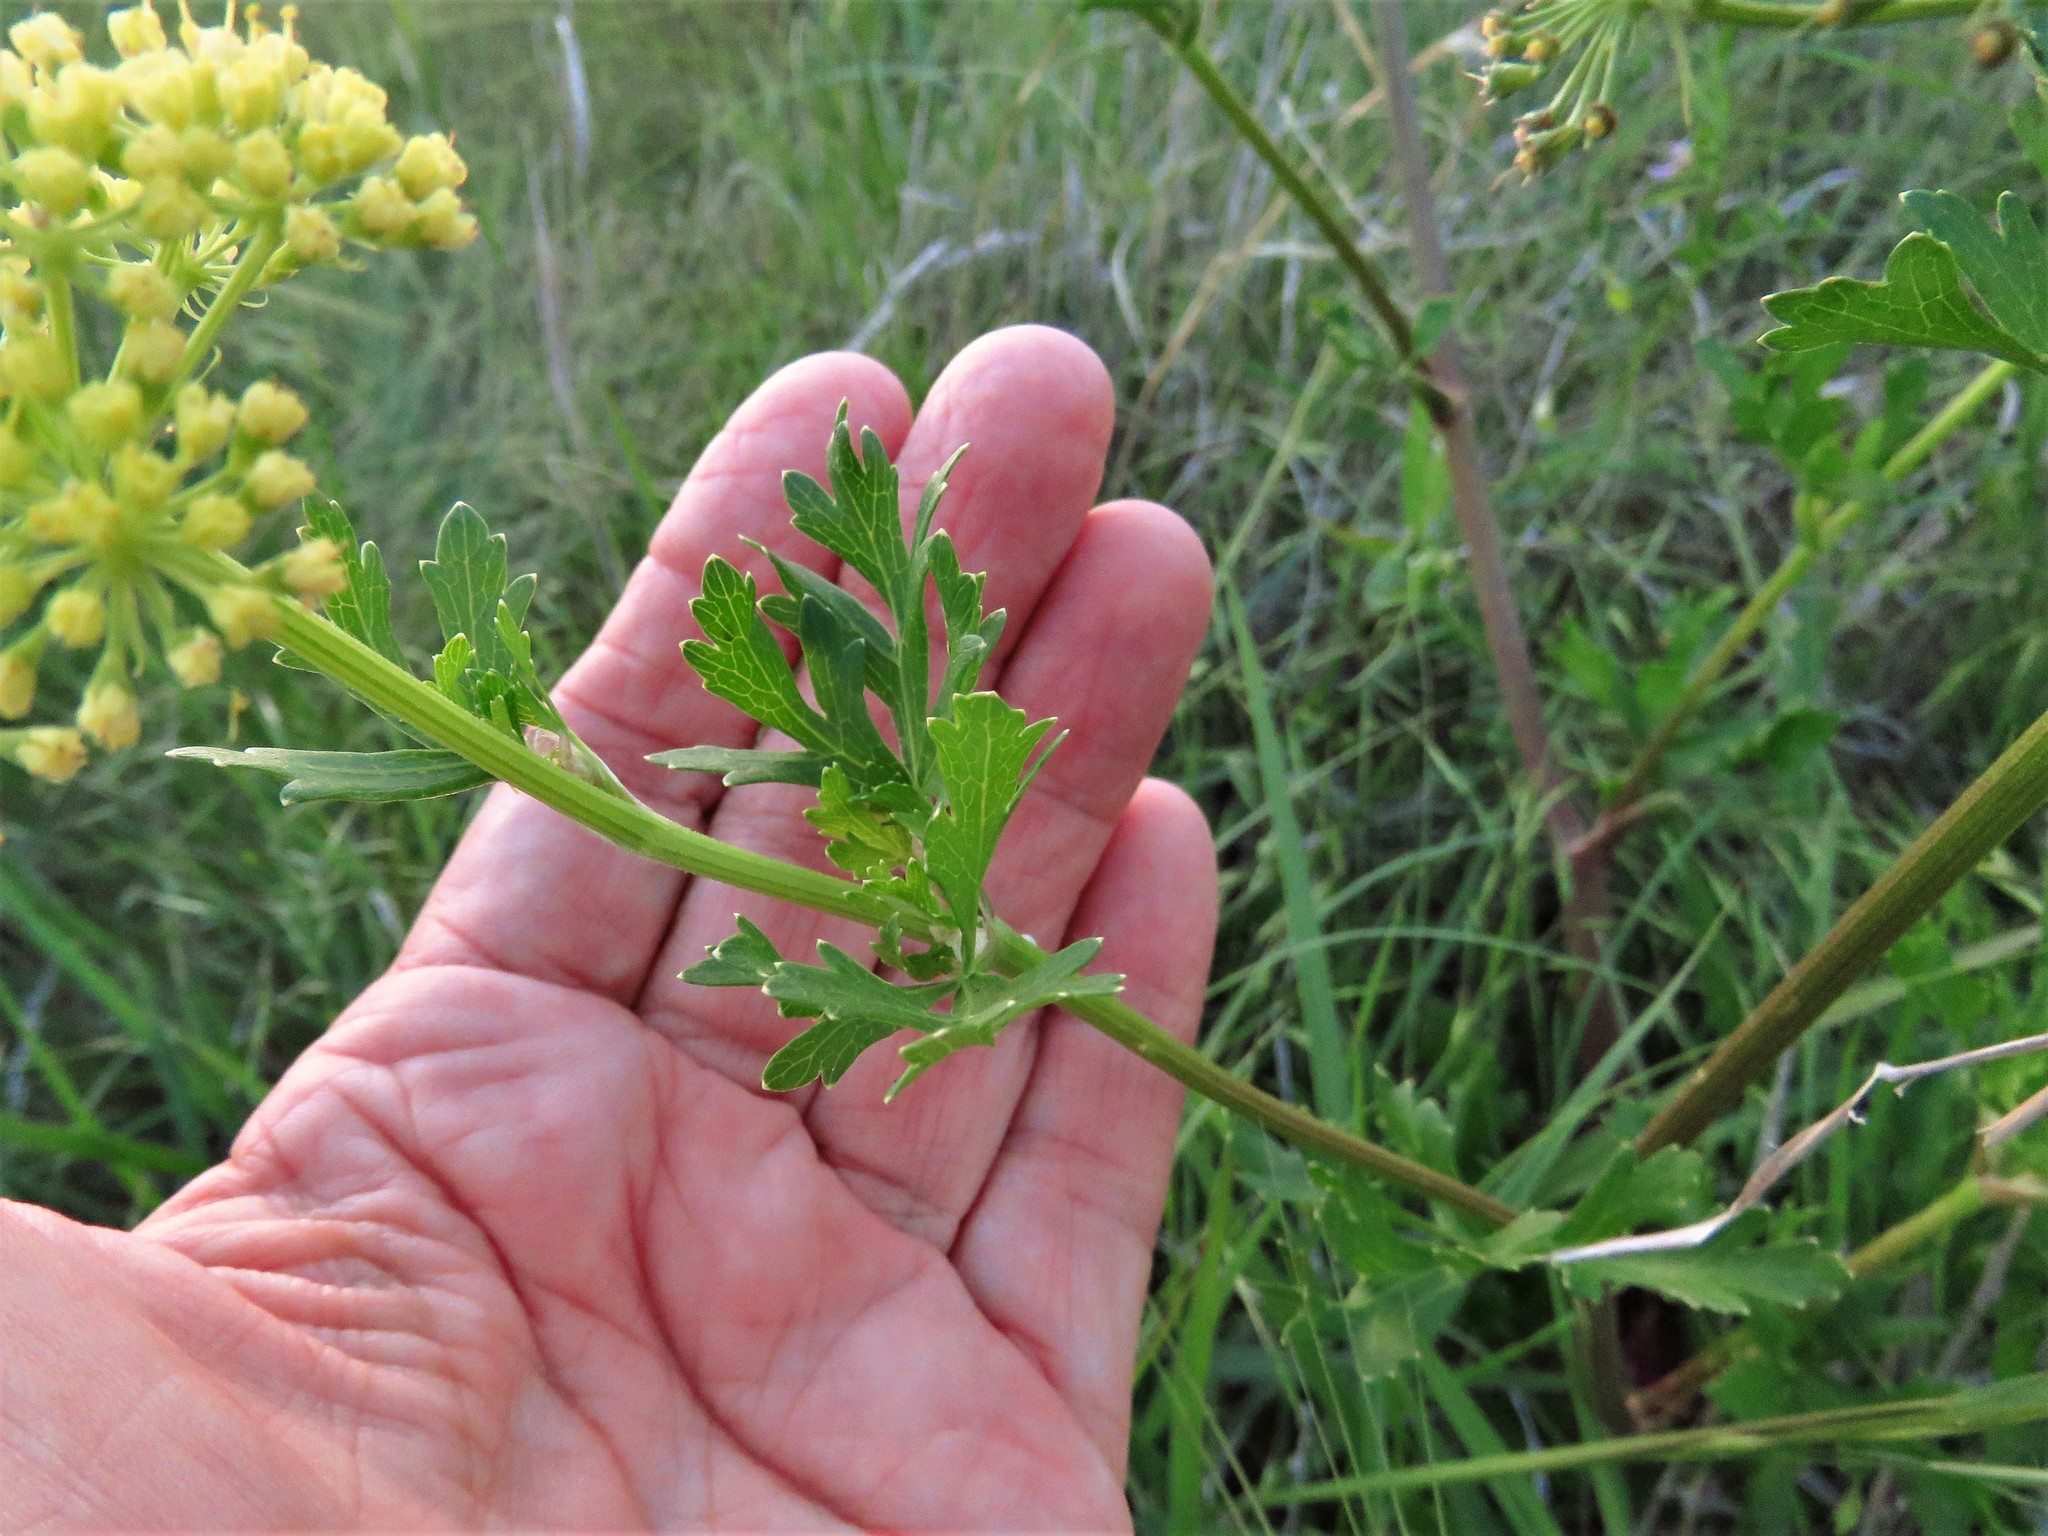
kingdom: Plantae
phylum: Tracheophyta
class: Magnoliopsida
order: Apiales
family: Apiaceae
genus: Polytaenia
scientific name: Polytaenia texana
